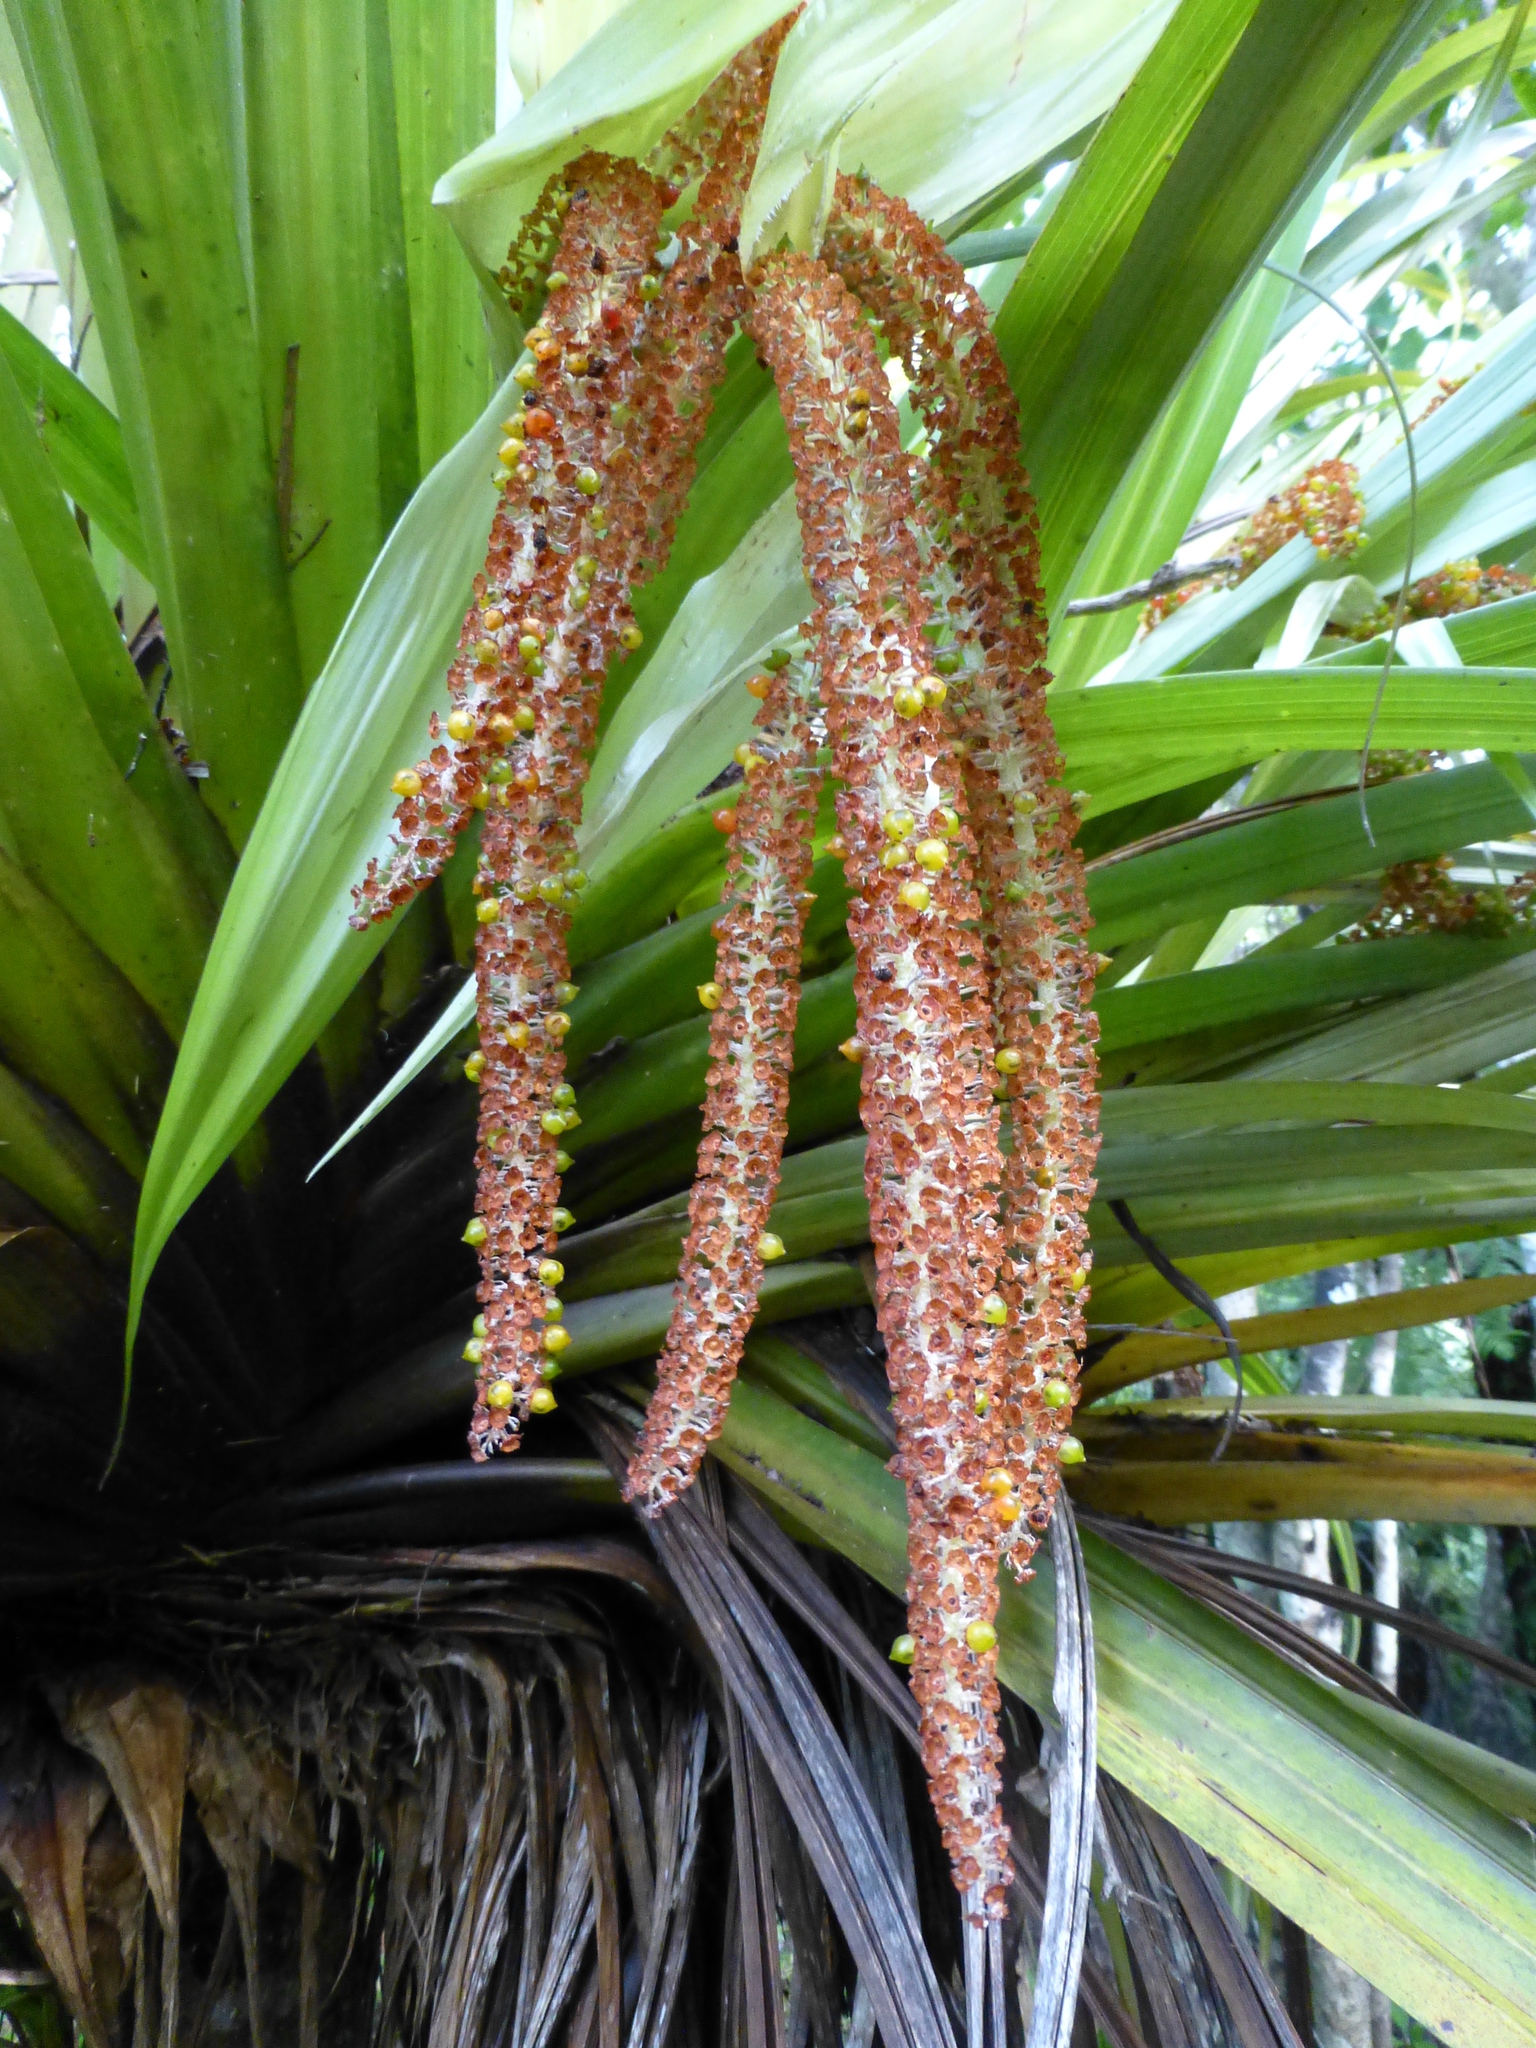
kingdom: Plantae
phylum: Tracheophyta
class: Liliopsida
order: Asparagales
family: Asteliaceae
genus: Astelia
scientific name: Astelia hastata
